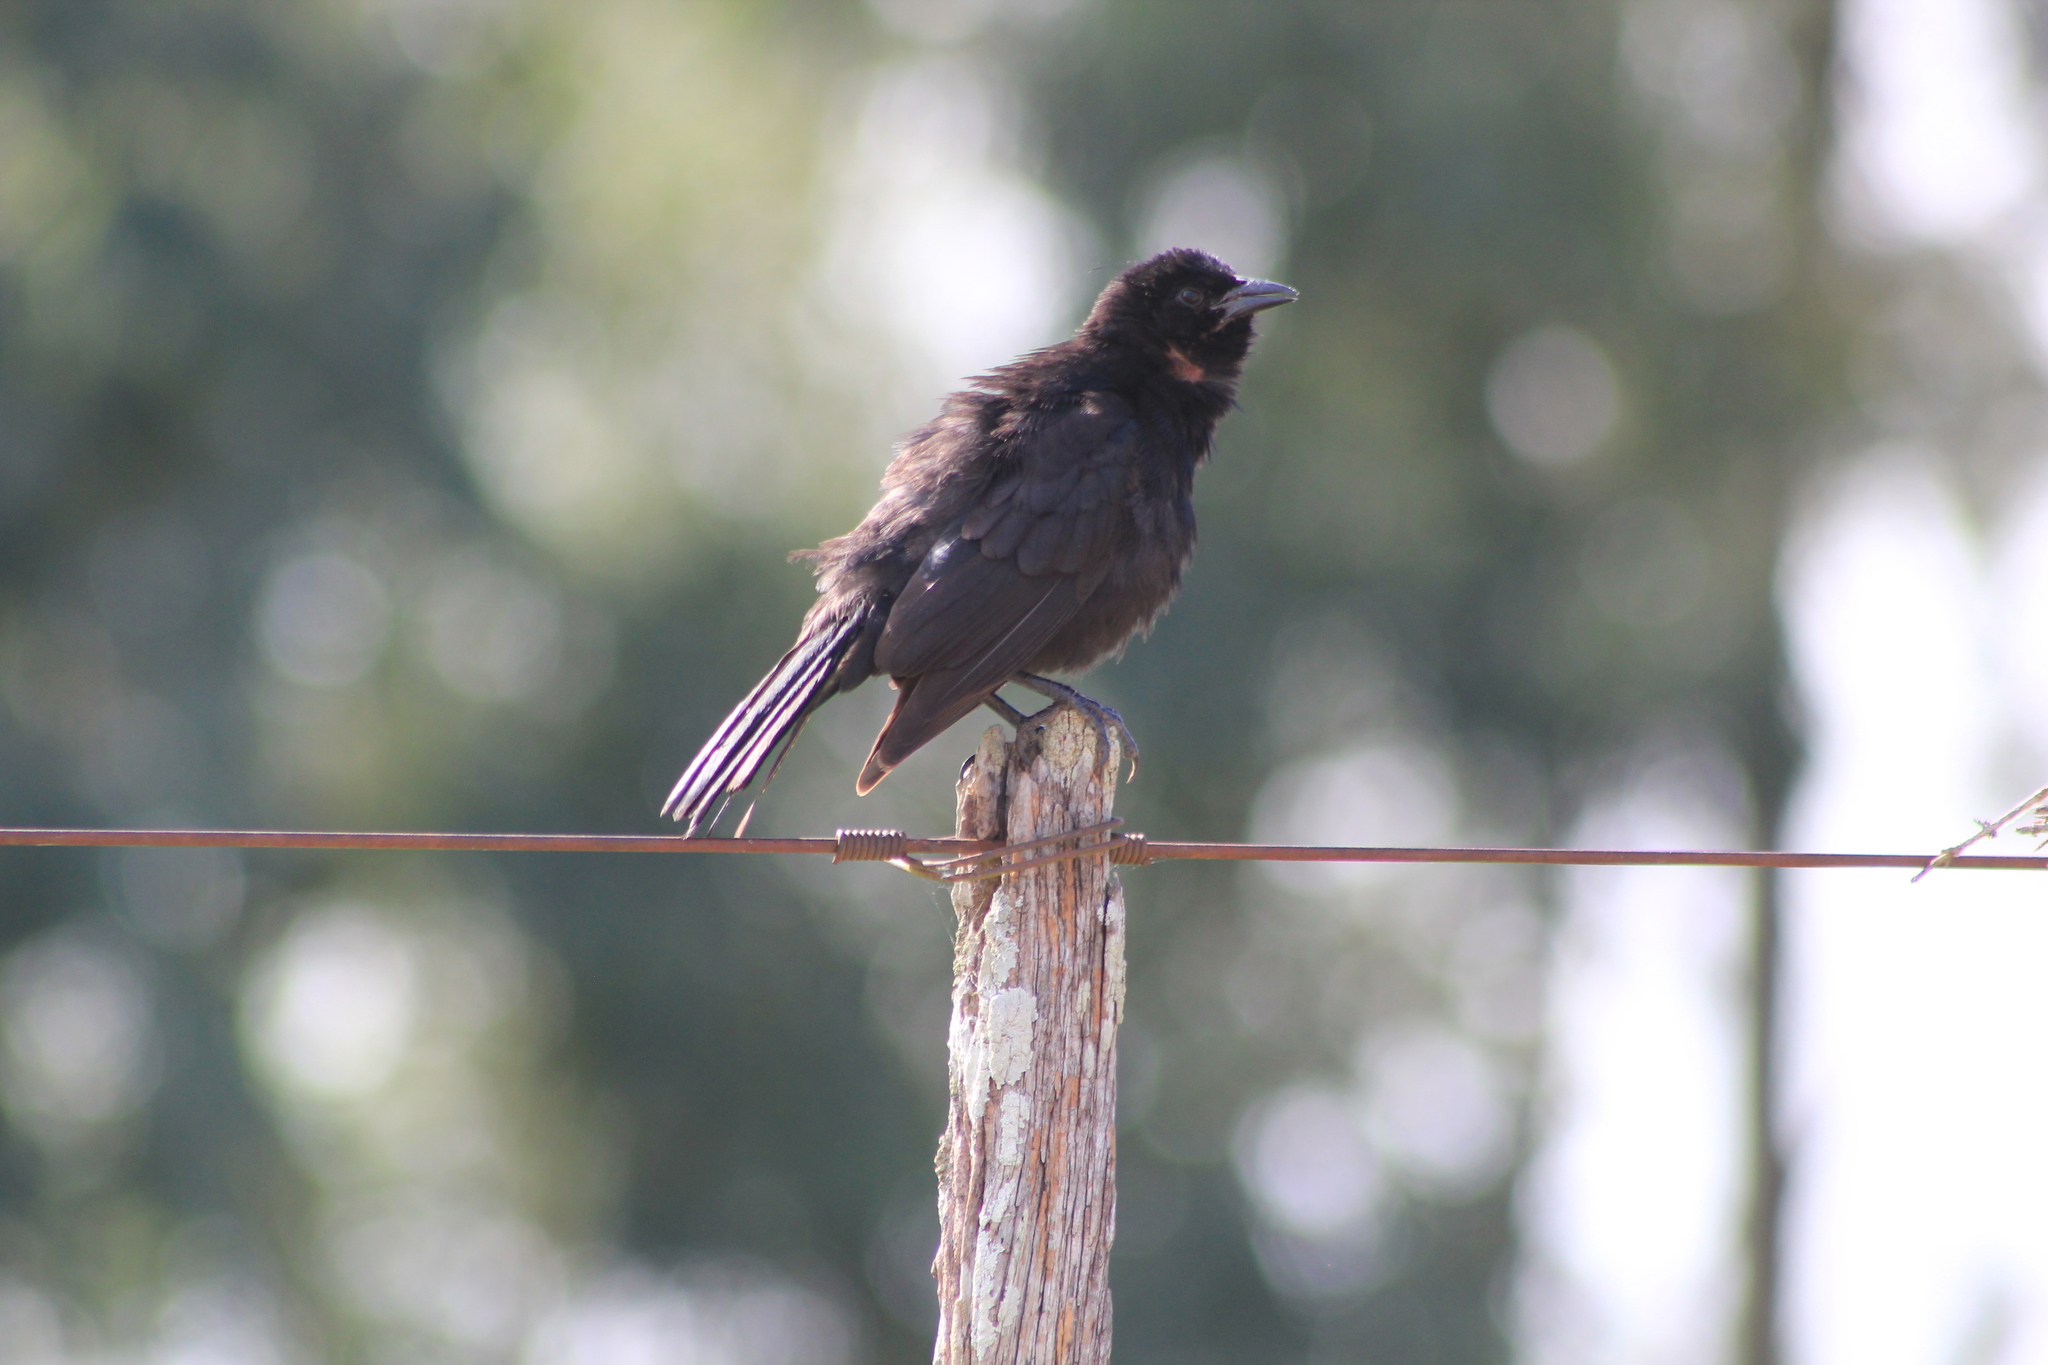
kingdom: Animalia
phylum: Chordata
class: Aves
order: Passeriformes
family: Icteridae
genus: Gnorimopsar
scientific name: Gnorimopsar chopi
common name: Chopi blackbird
